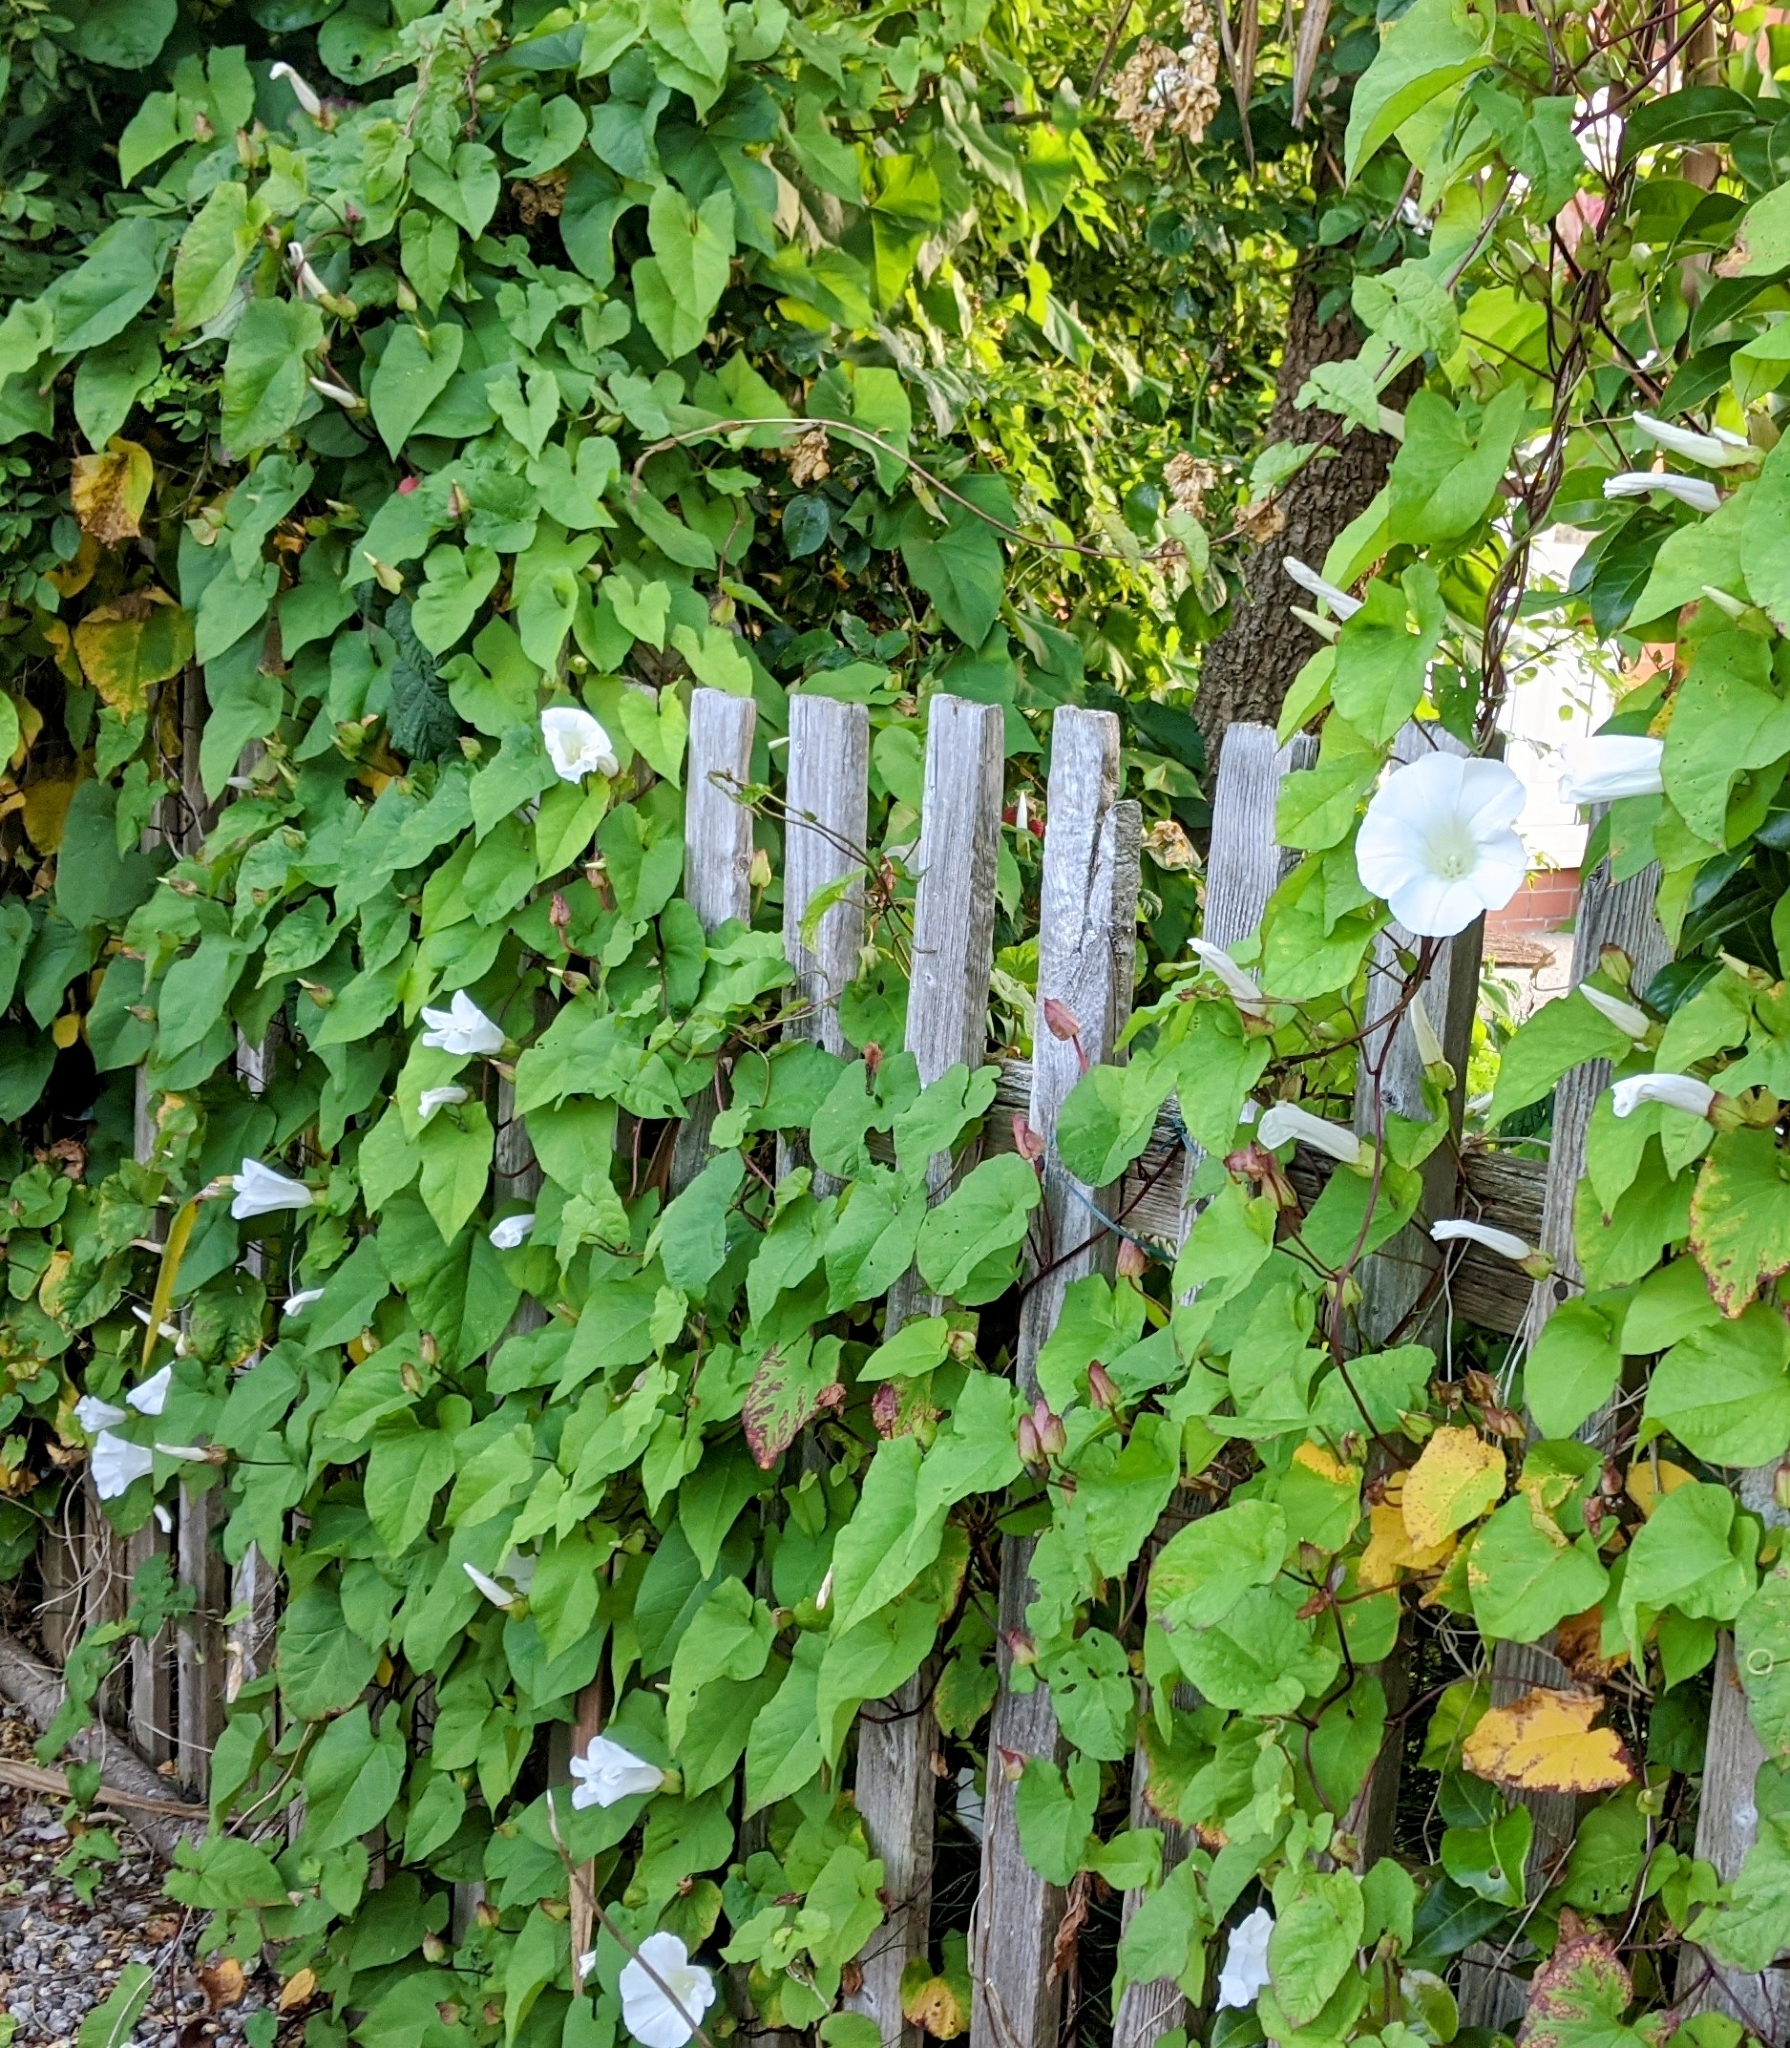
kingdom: Plantae
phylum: Tracheophyta
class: Magnoliopsida
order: Solanales
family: Convolvulaceae
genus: Calystegia
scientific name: Calystegia silvatica
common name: Large bindweed
